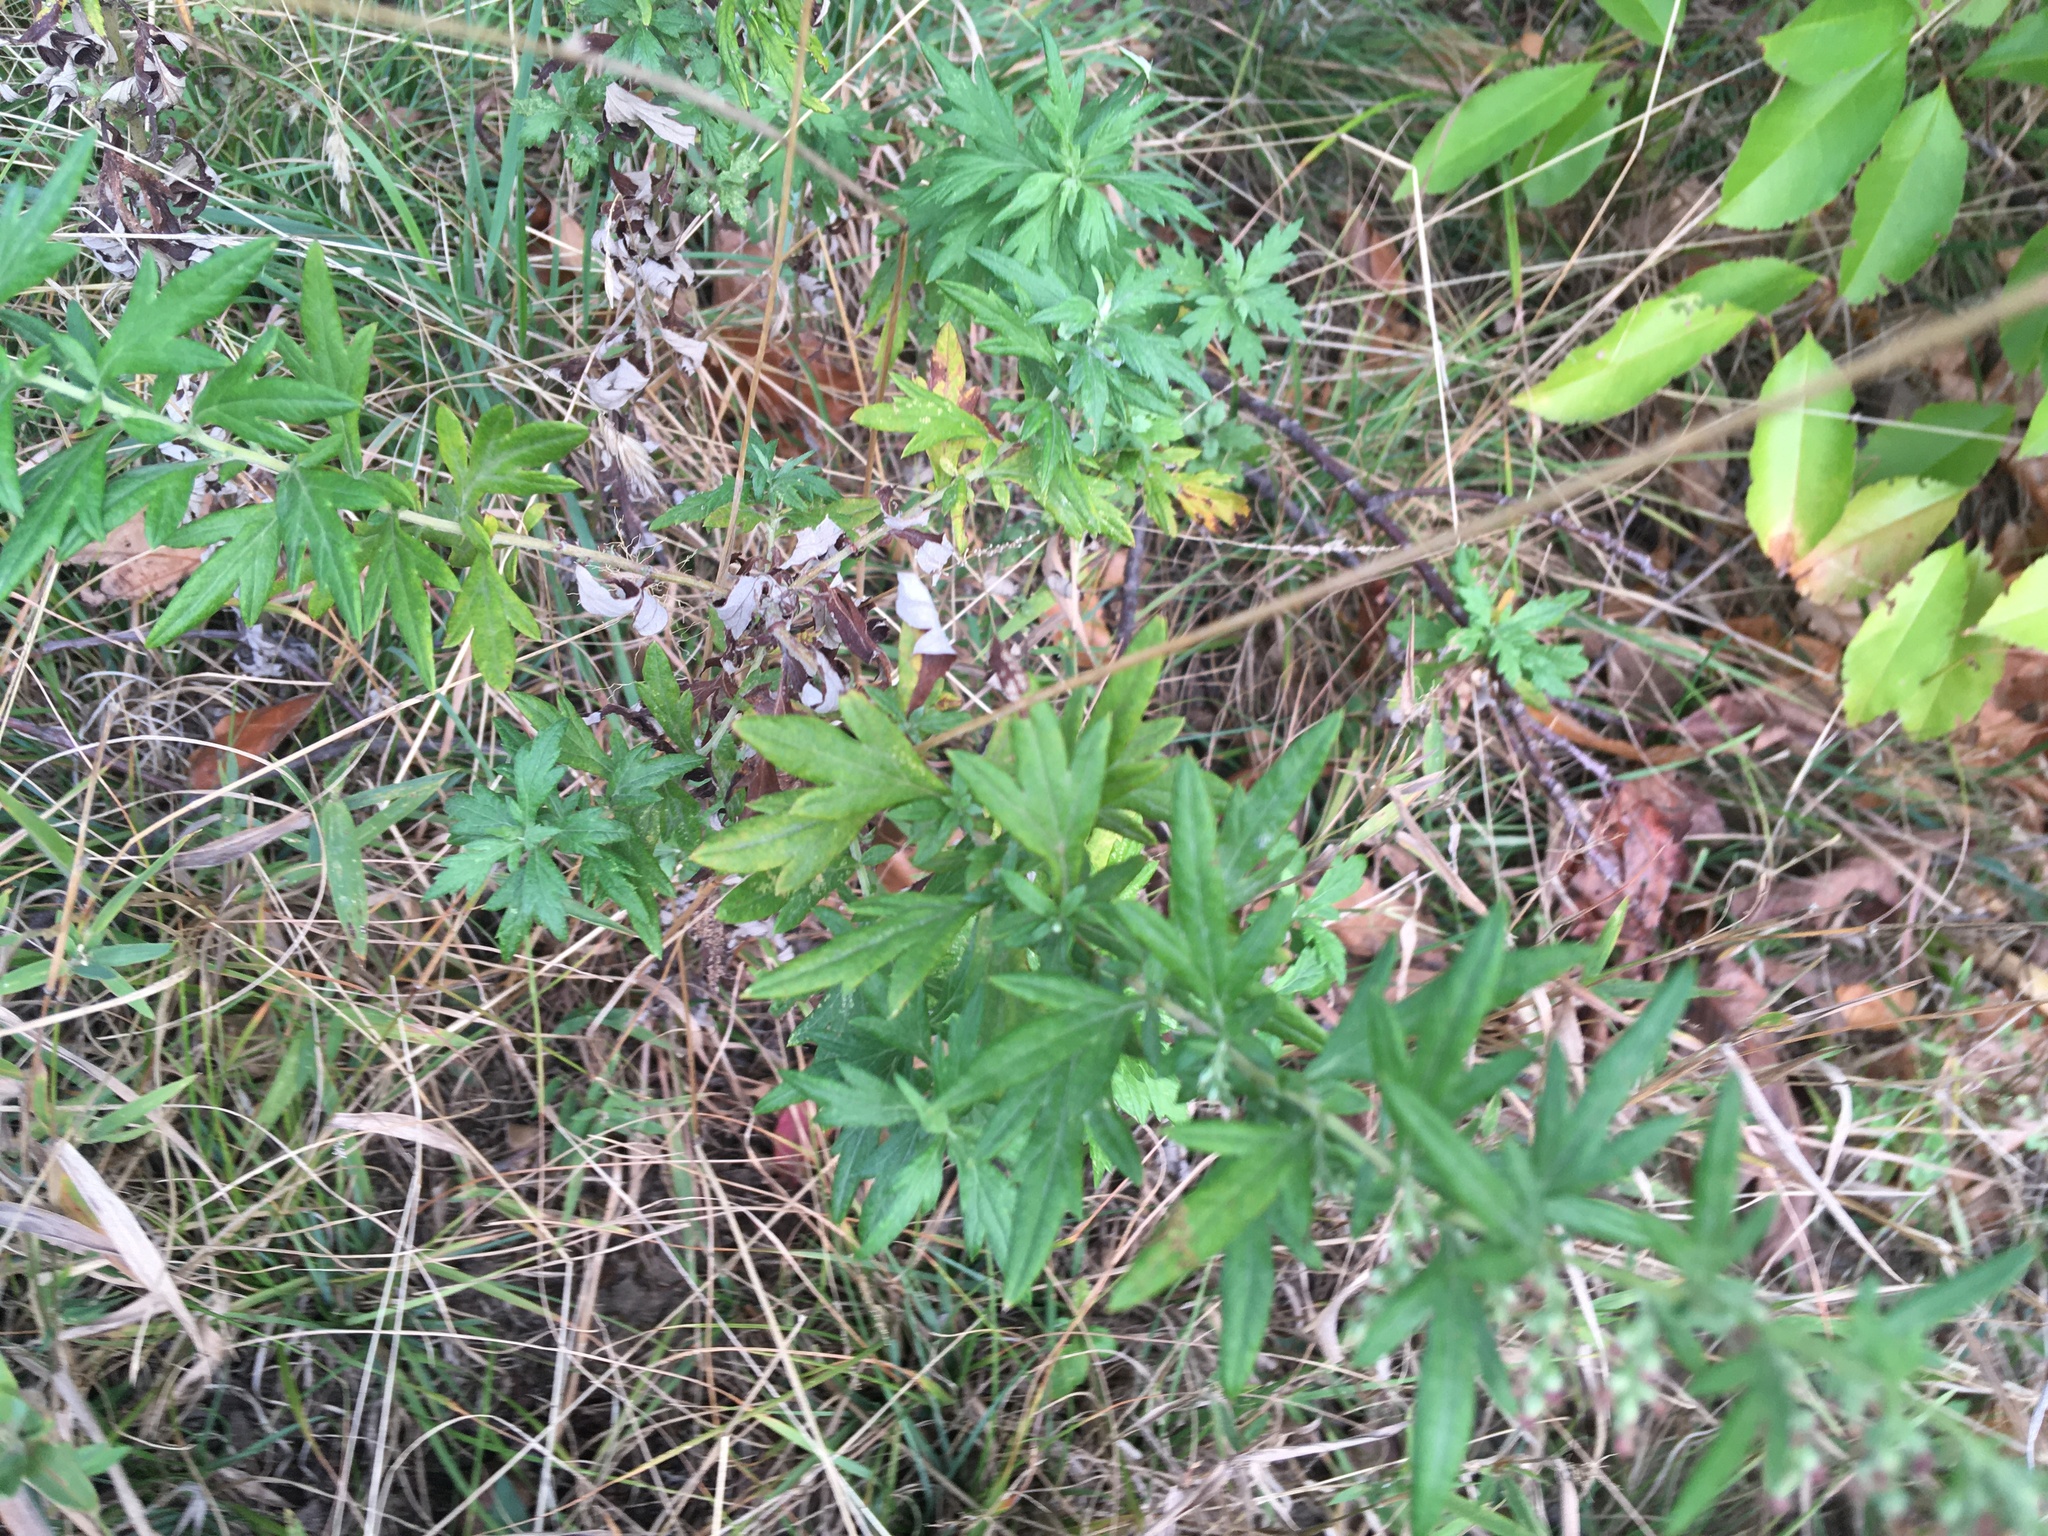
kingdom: Plantae
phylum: Tracheophyta
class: Magnoliopsida
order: Asterales
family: Asteraceae
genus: Artemisia
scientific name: Artemisia vulgaris
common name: Mugwort
